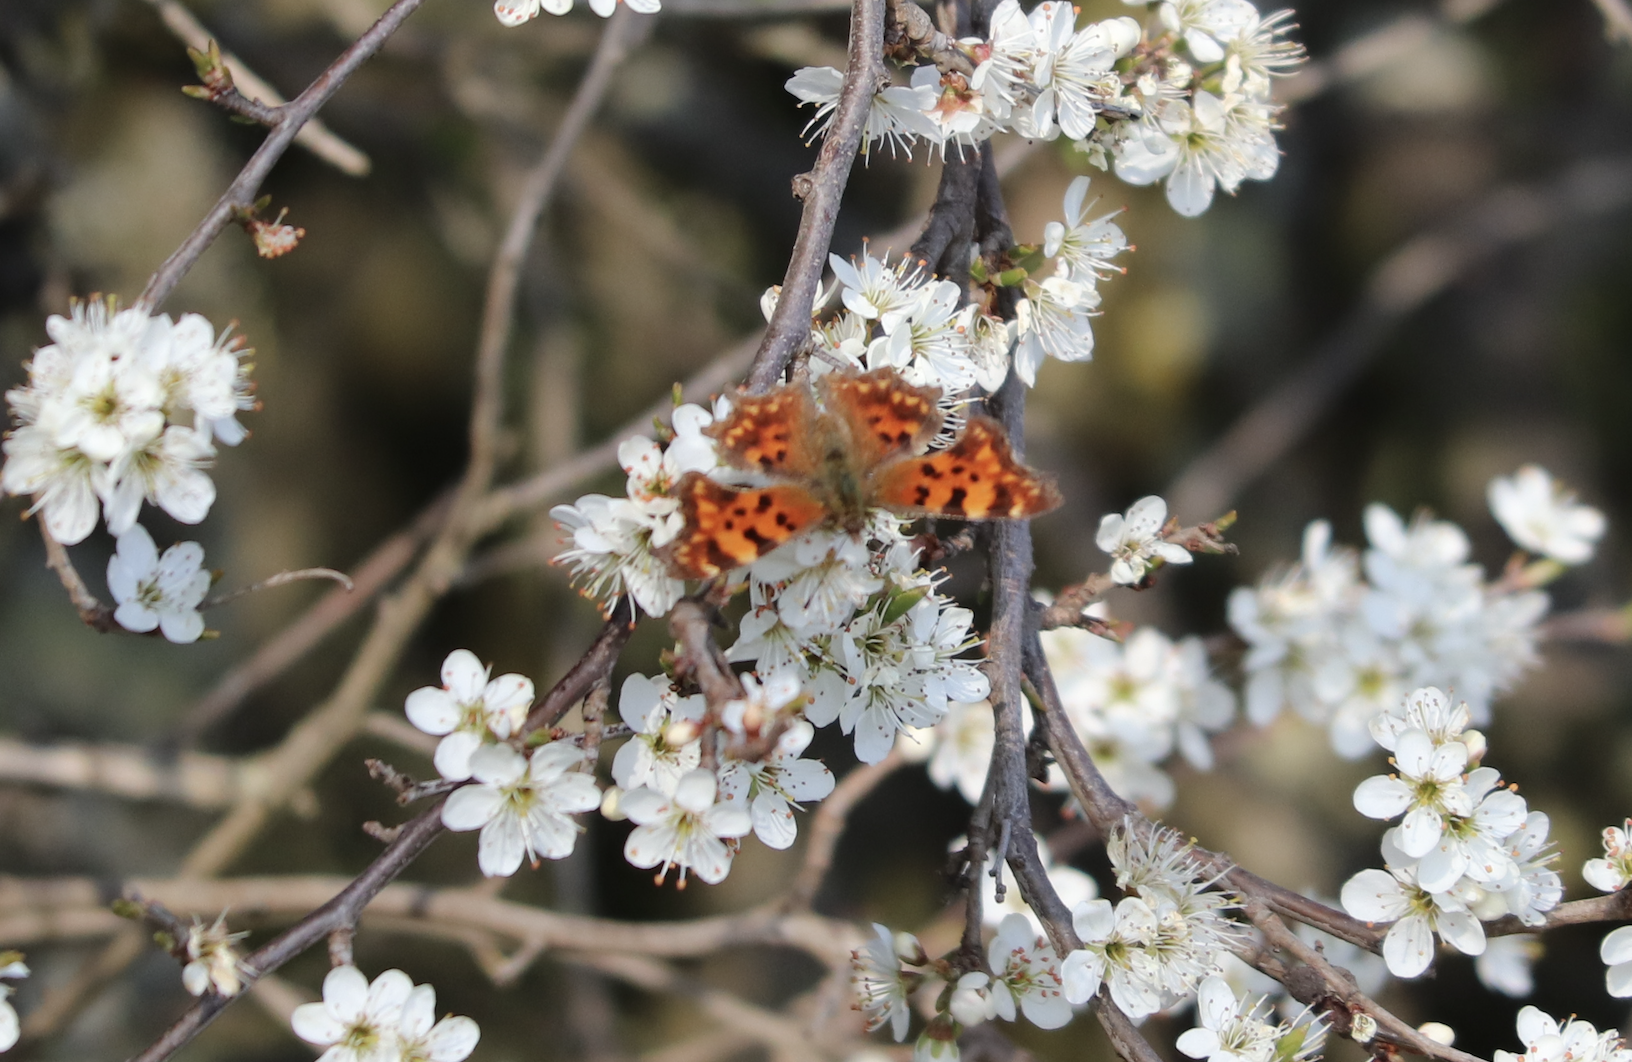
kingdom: Animalia
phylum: Arthropoda
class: Insecta
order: Lepidoptera
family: Nymphalidae
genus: Polygonia
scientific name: Polygonia c-album
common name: Comma
